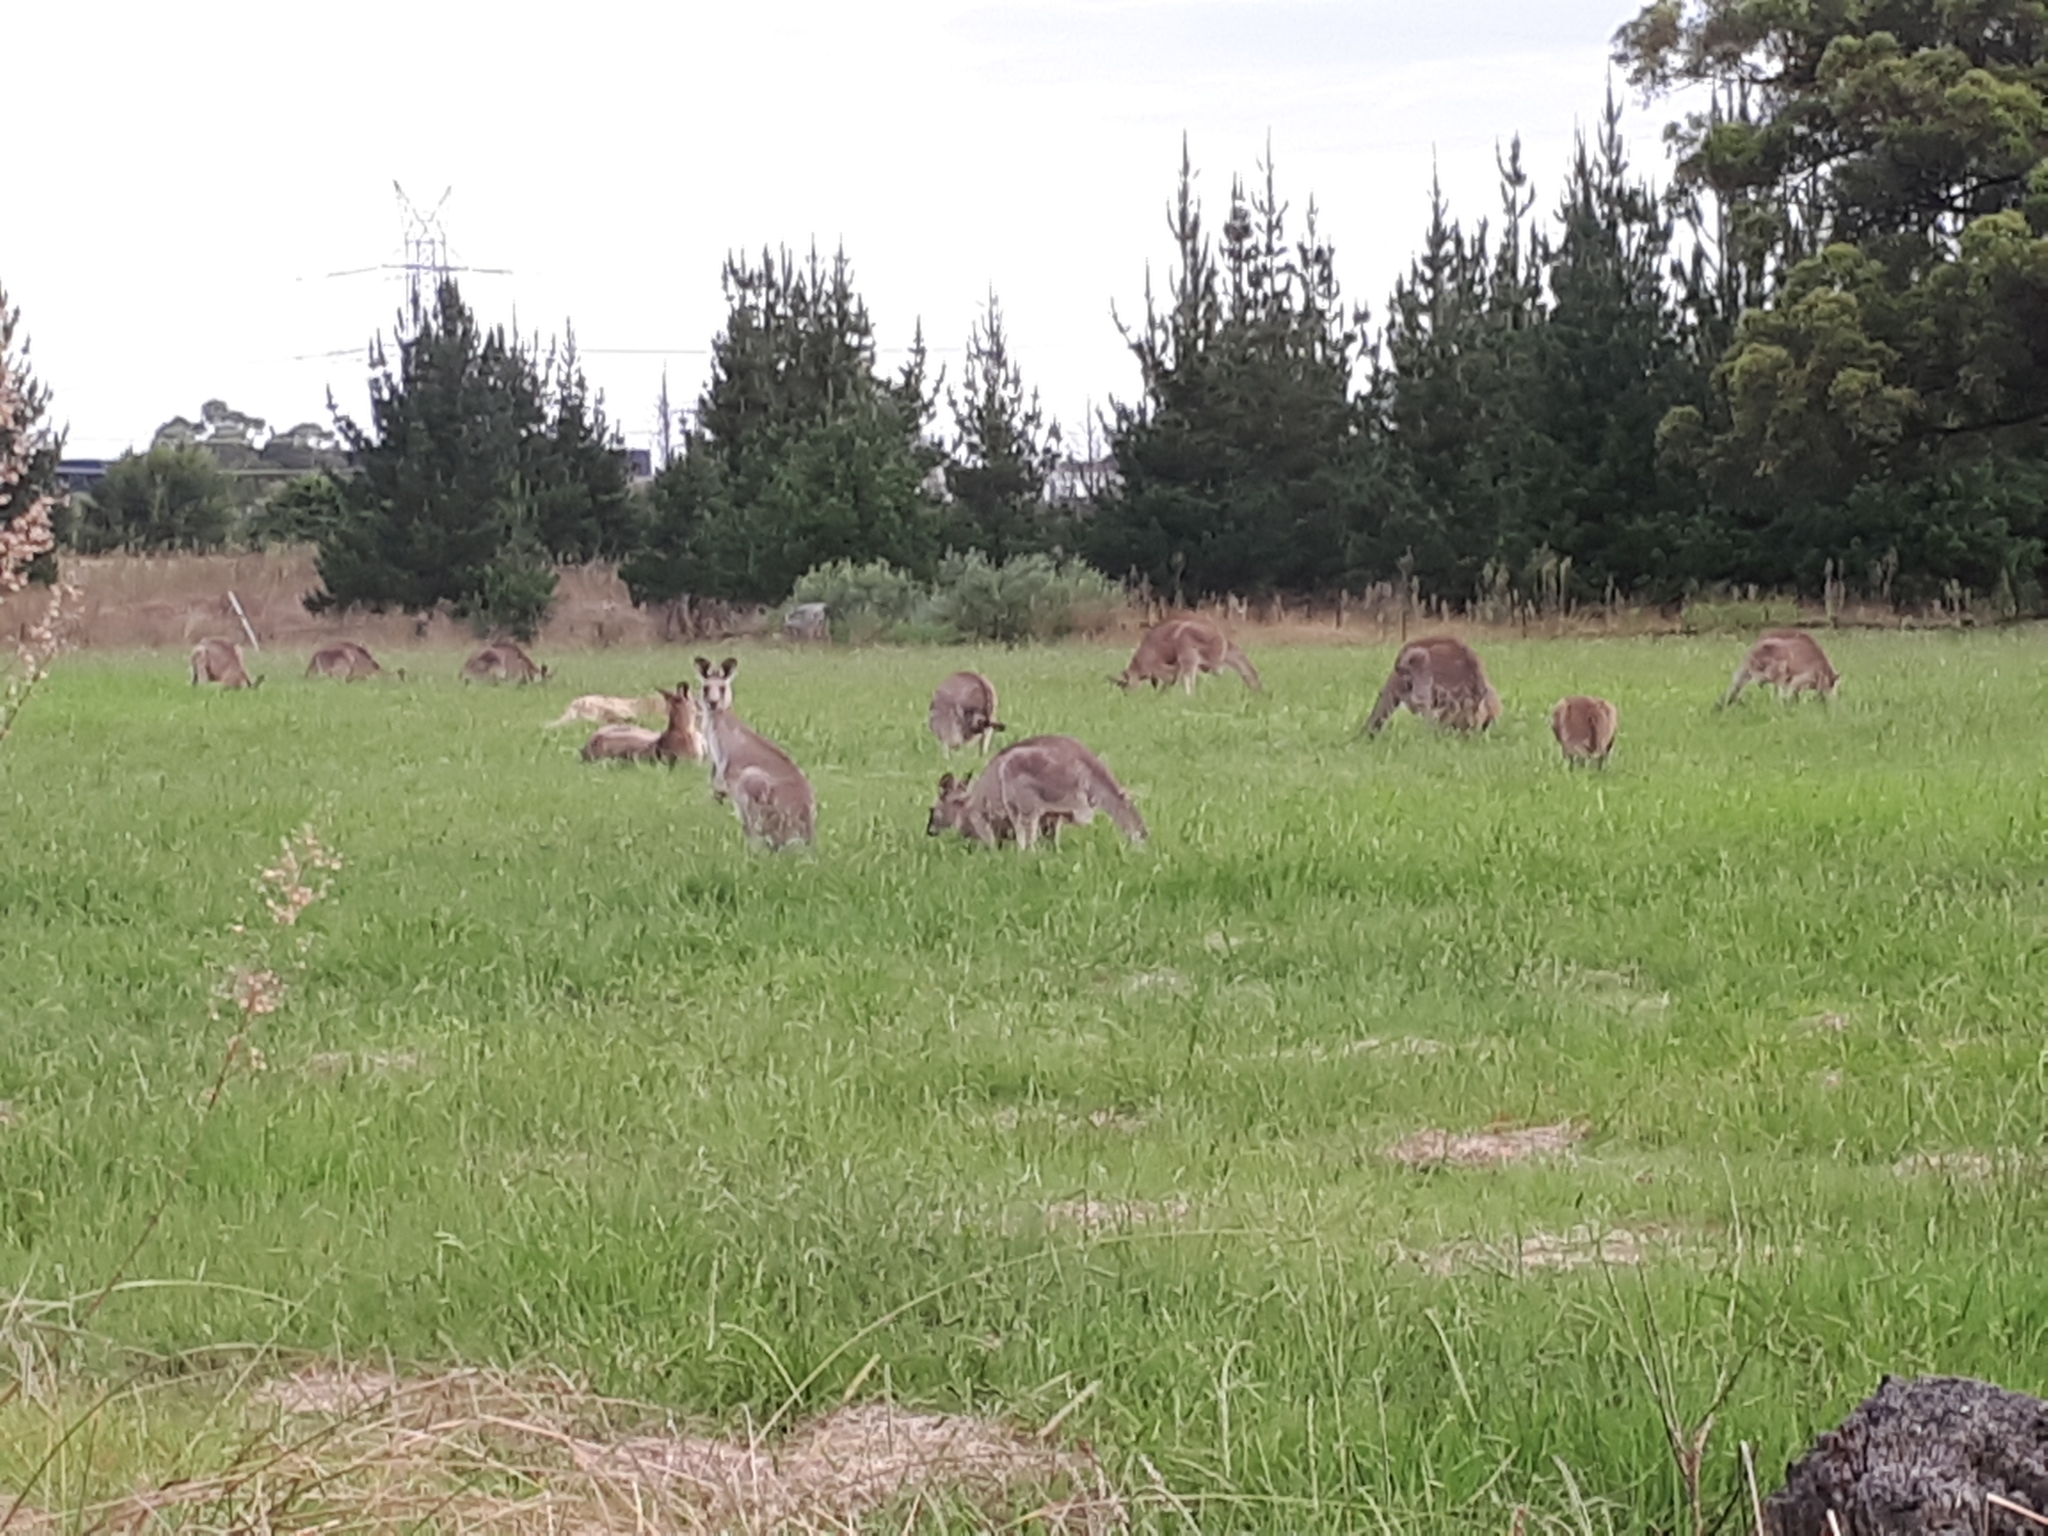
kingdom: Animalia
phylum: Chordata
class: Mammalia
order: Diprotodontia
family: Macropodidae
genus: Macropus
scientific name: Macropus giganteus
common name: Eastern grey kangaroo
